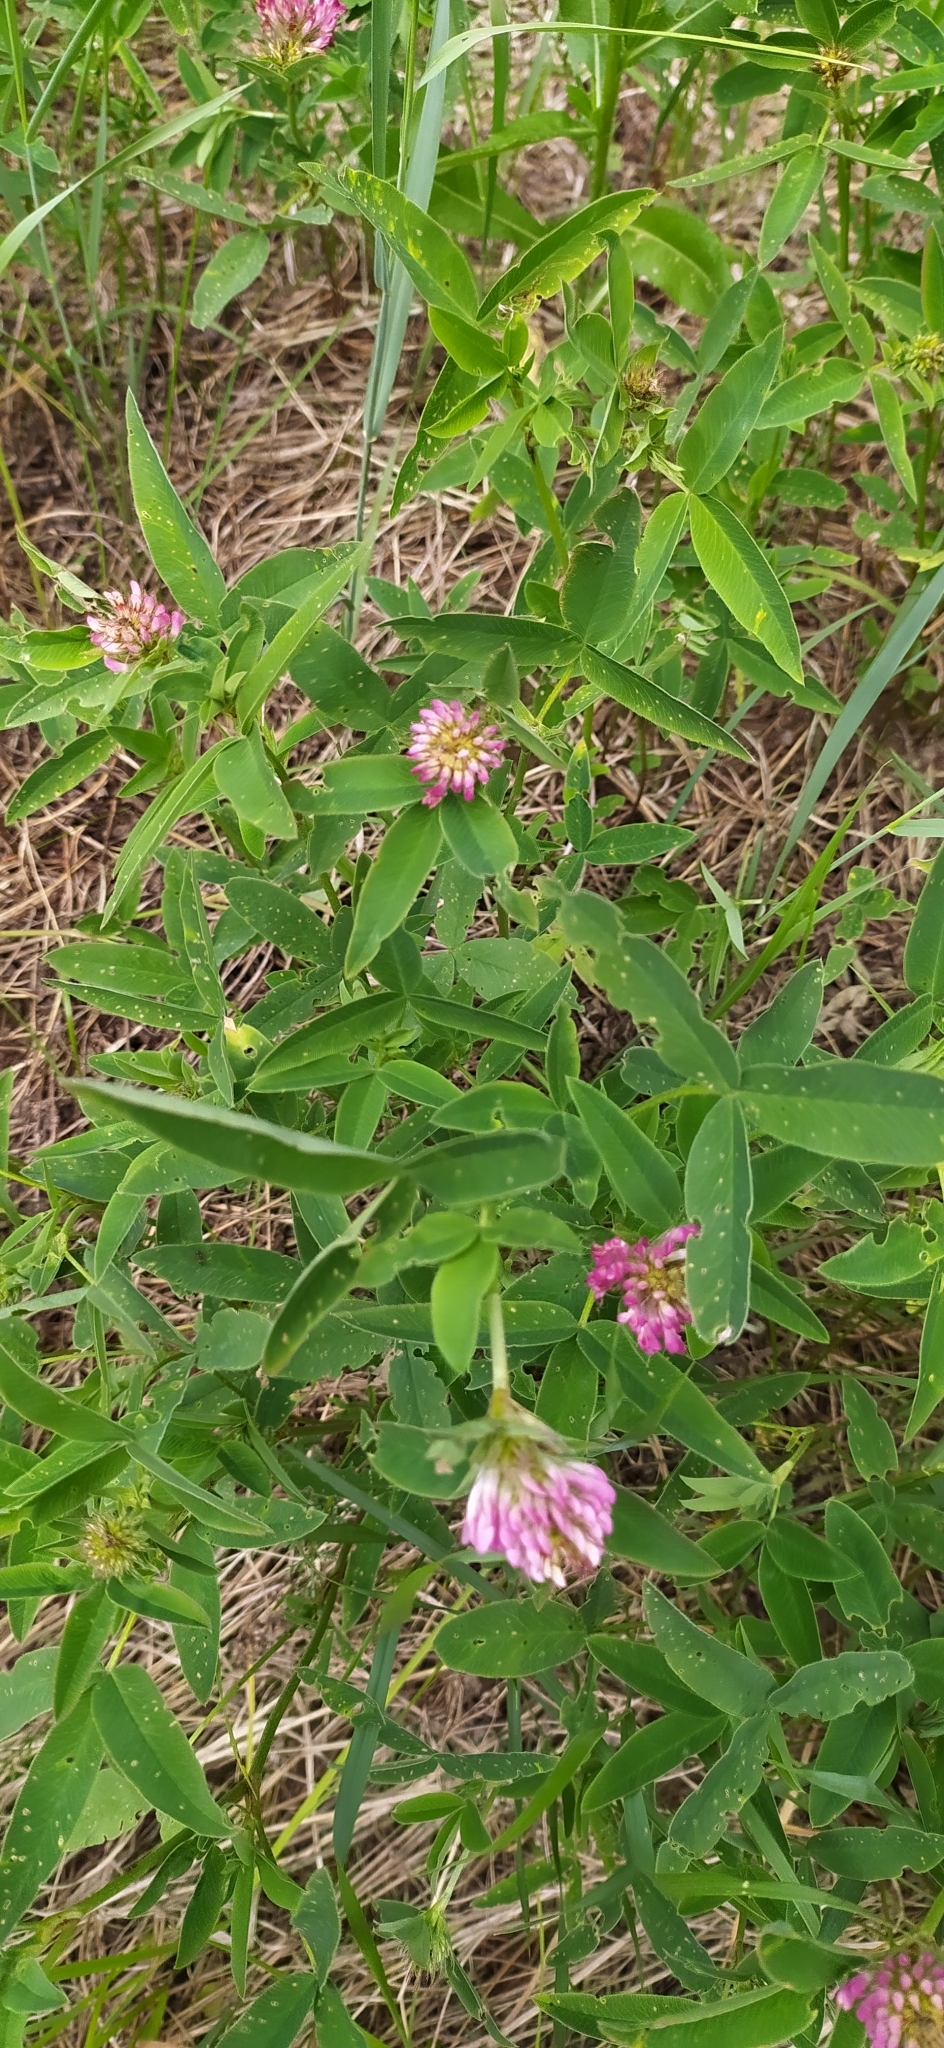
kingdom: Plantae
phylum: Tracheophyta
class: Magnoliopsida
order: Fabales
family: Fabaceae
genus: Trifolium
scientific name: Trifolium medium
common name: Zigzag clover
